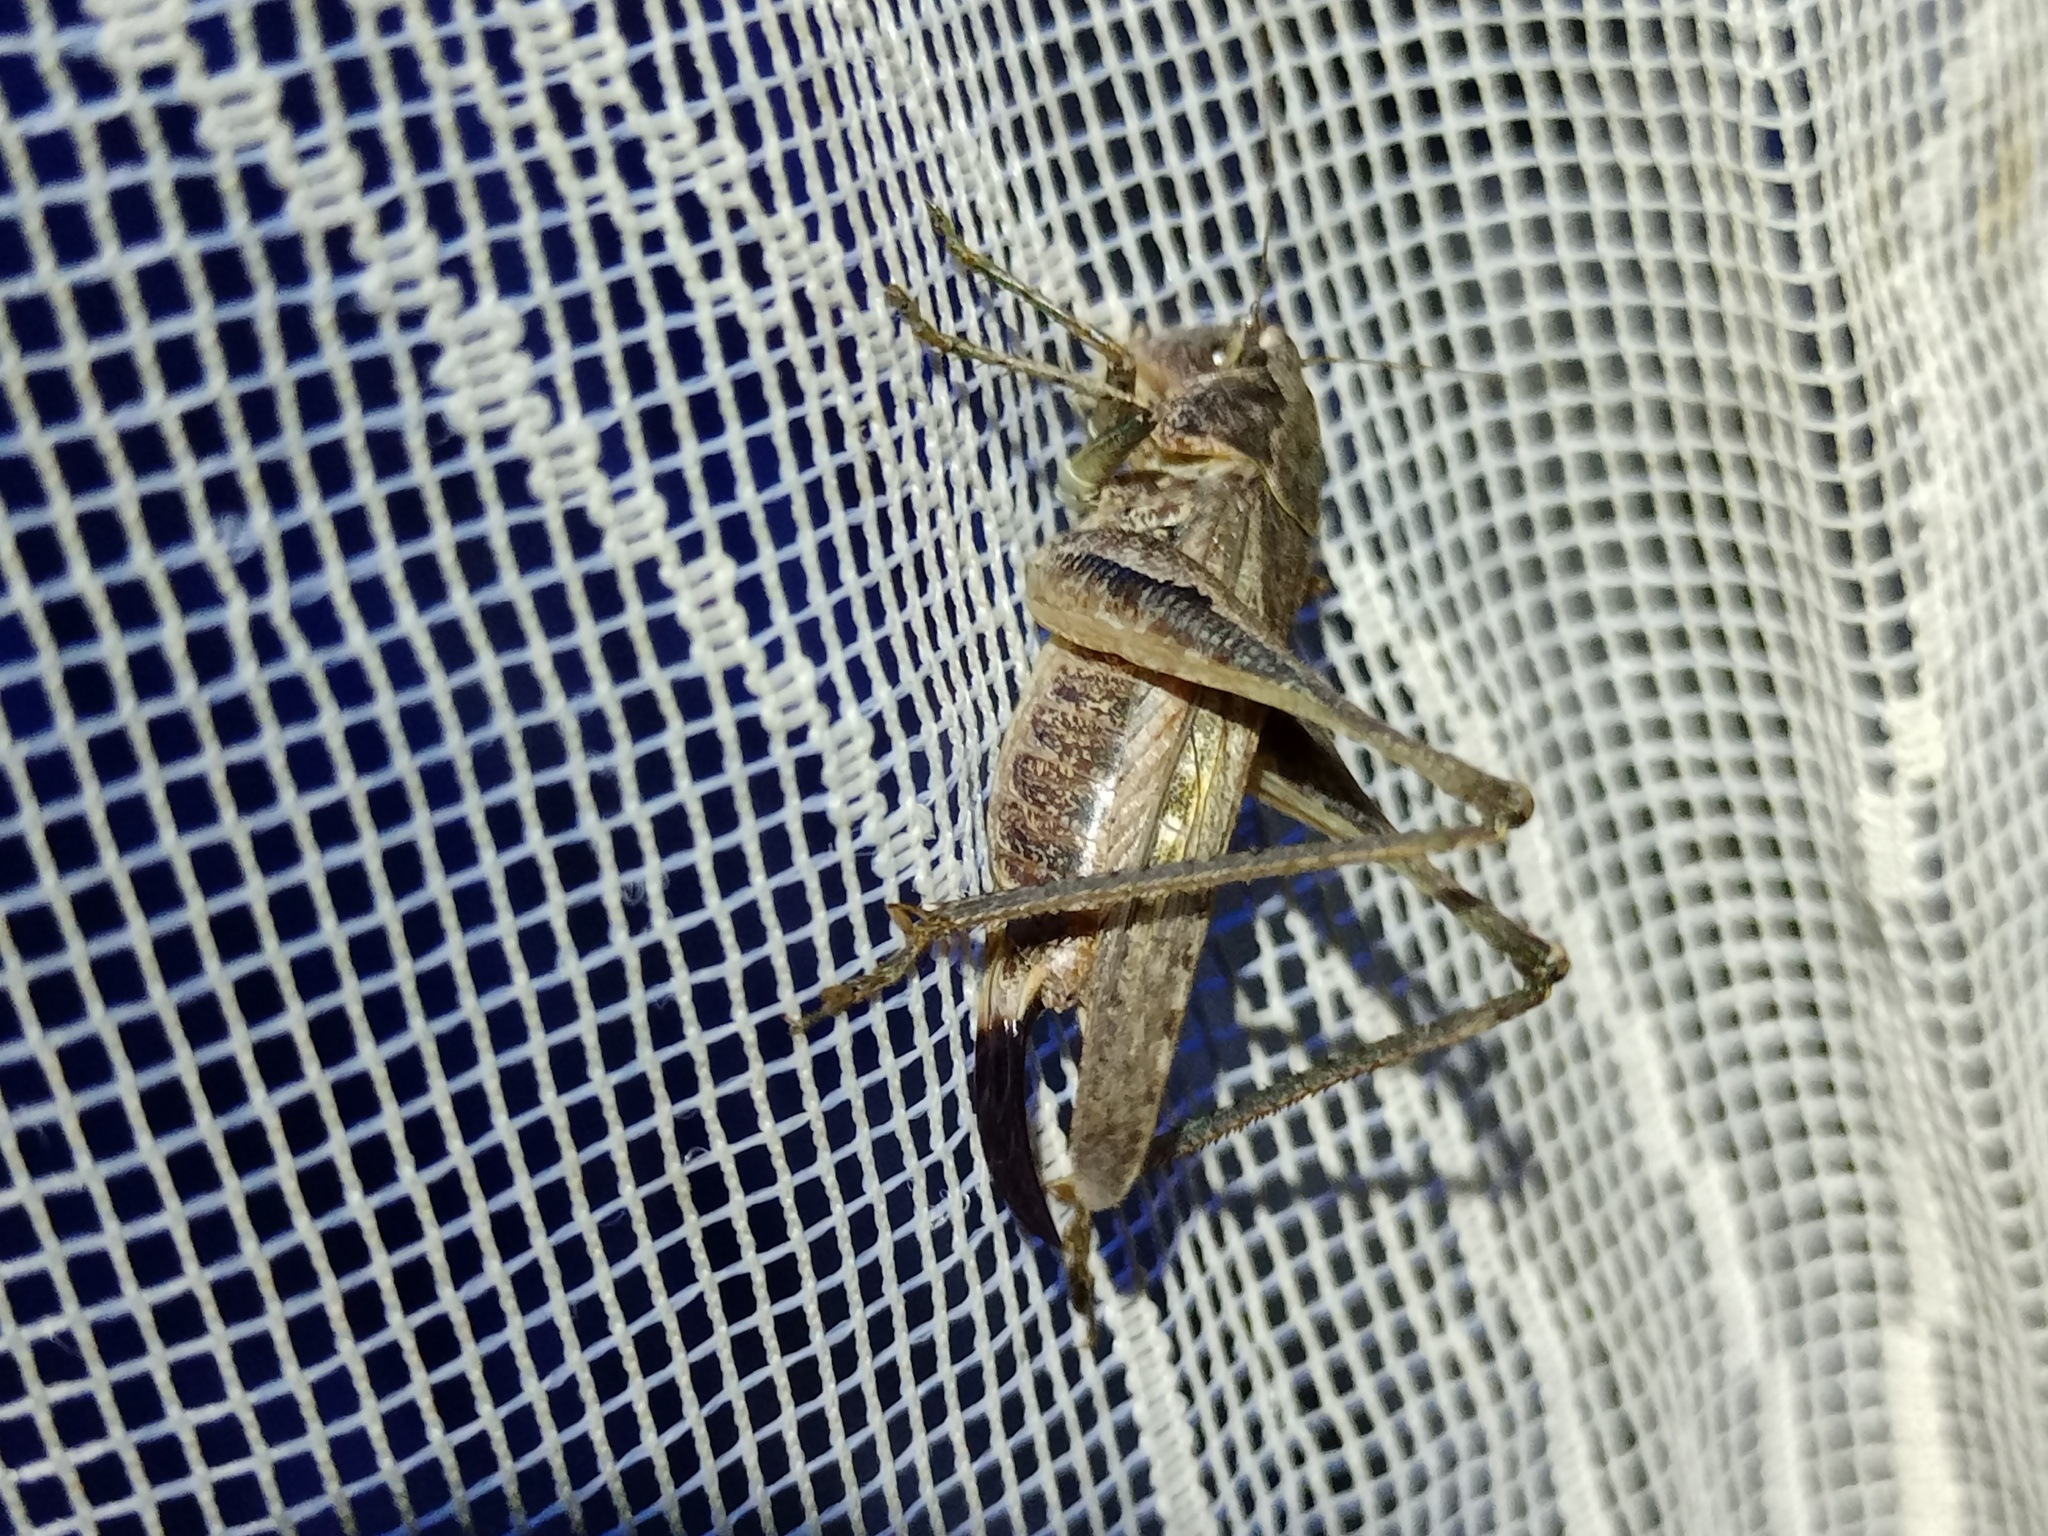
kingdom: Animalia
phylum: Arthropoda
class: Insecta
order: Orthoptera
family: Tettigoniidae
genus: Platycleis
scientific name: Platycleis albopunctata
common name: Grey bush-cricket
